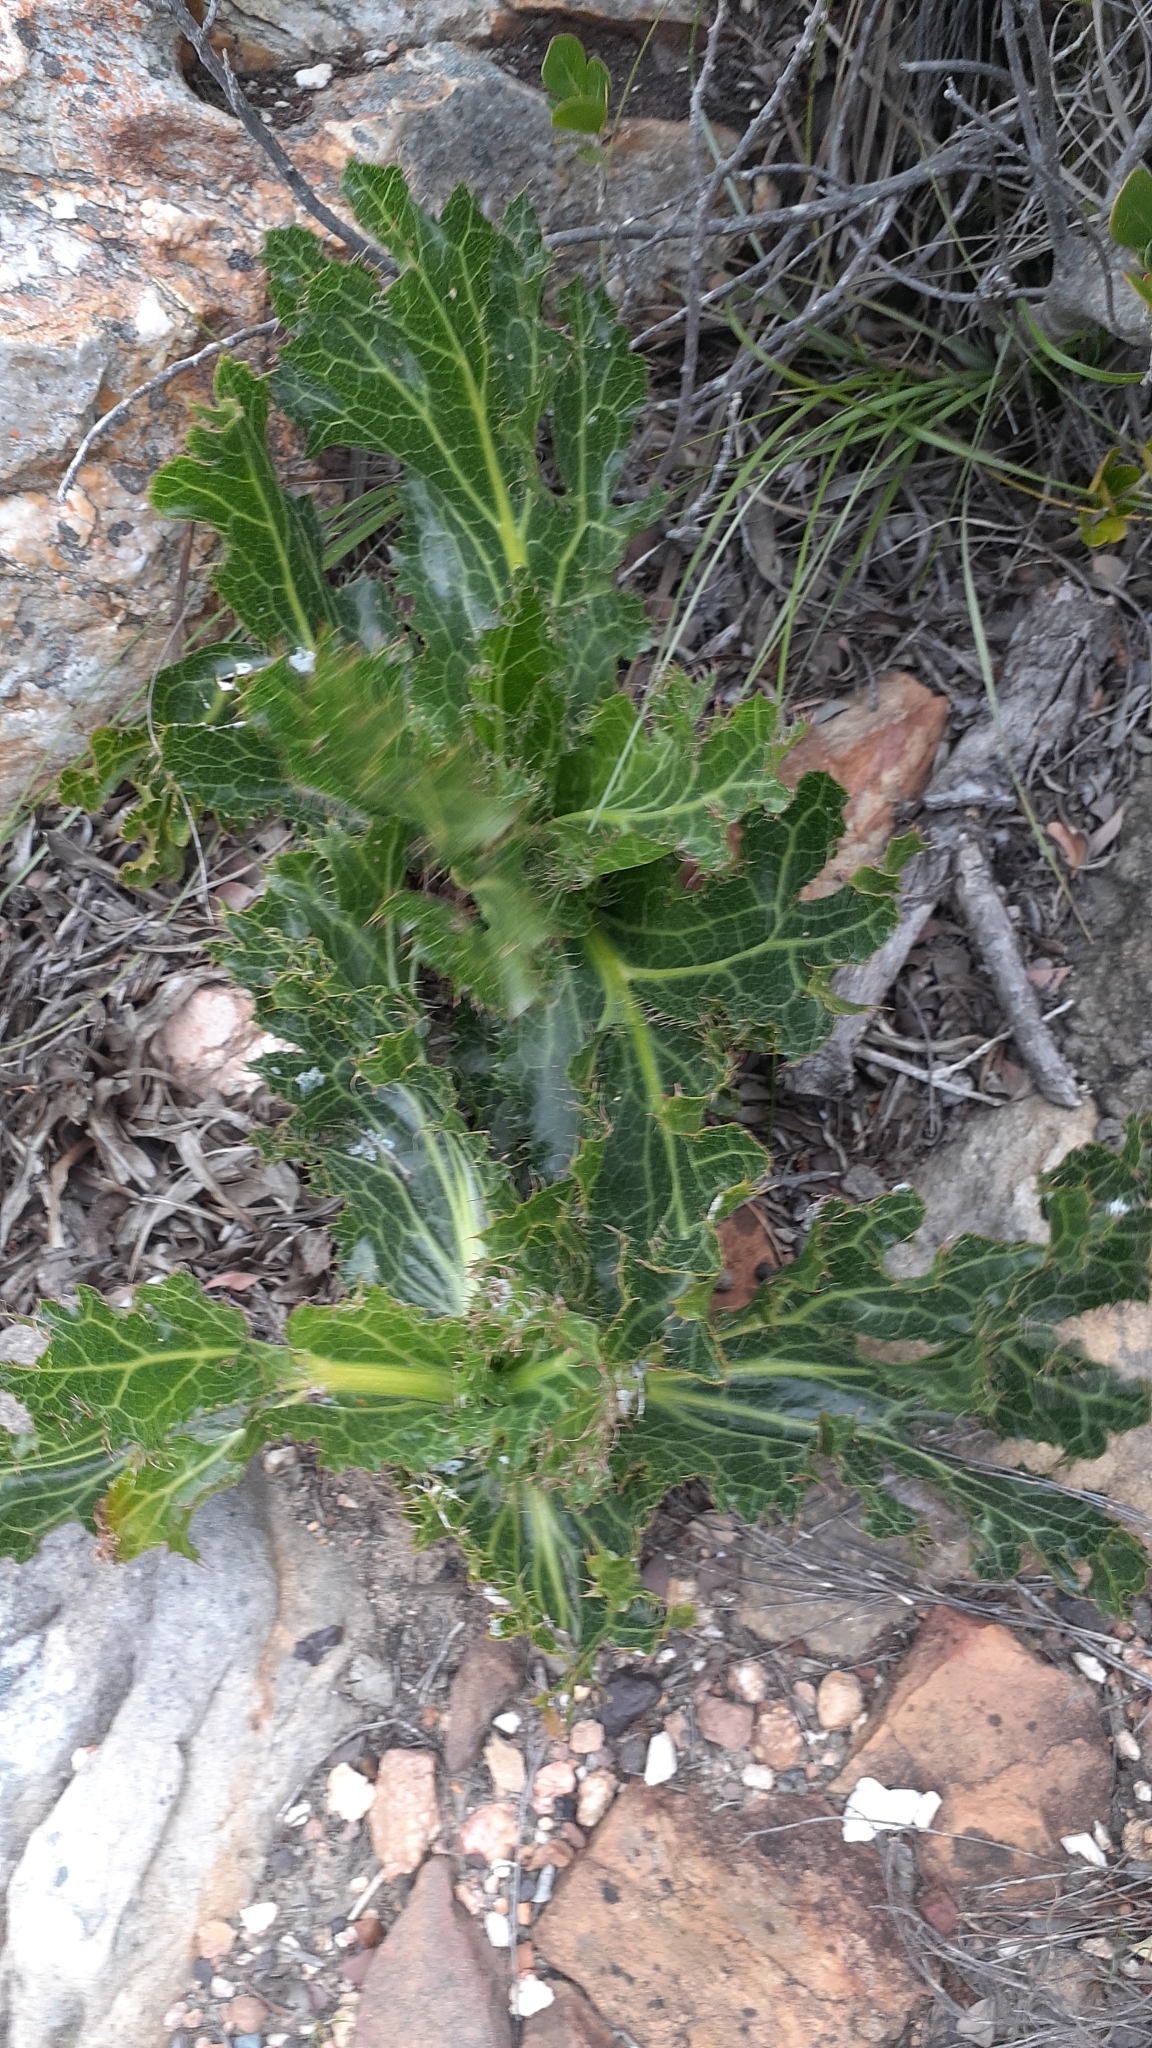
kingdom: Plantae
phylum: Tracheophyta
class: Magnoliopsida
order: Apiales
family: Apiaceae
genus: Lichtensteinia
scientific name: Lichtensteinia lacera
